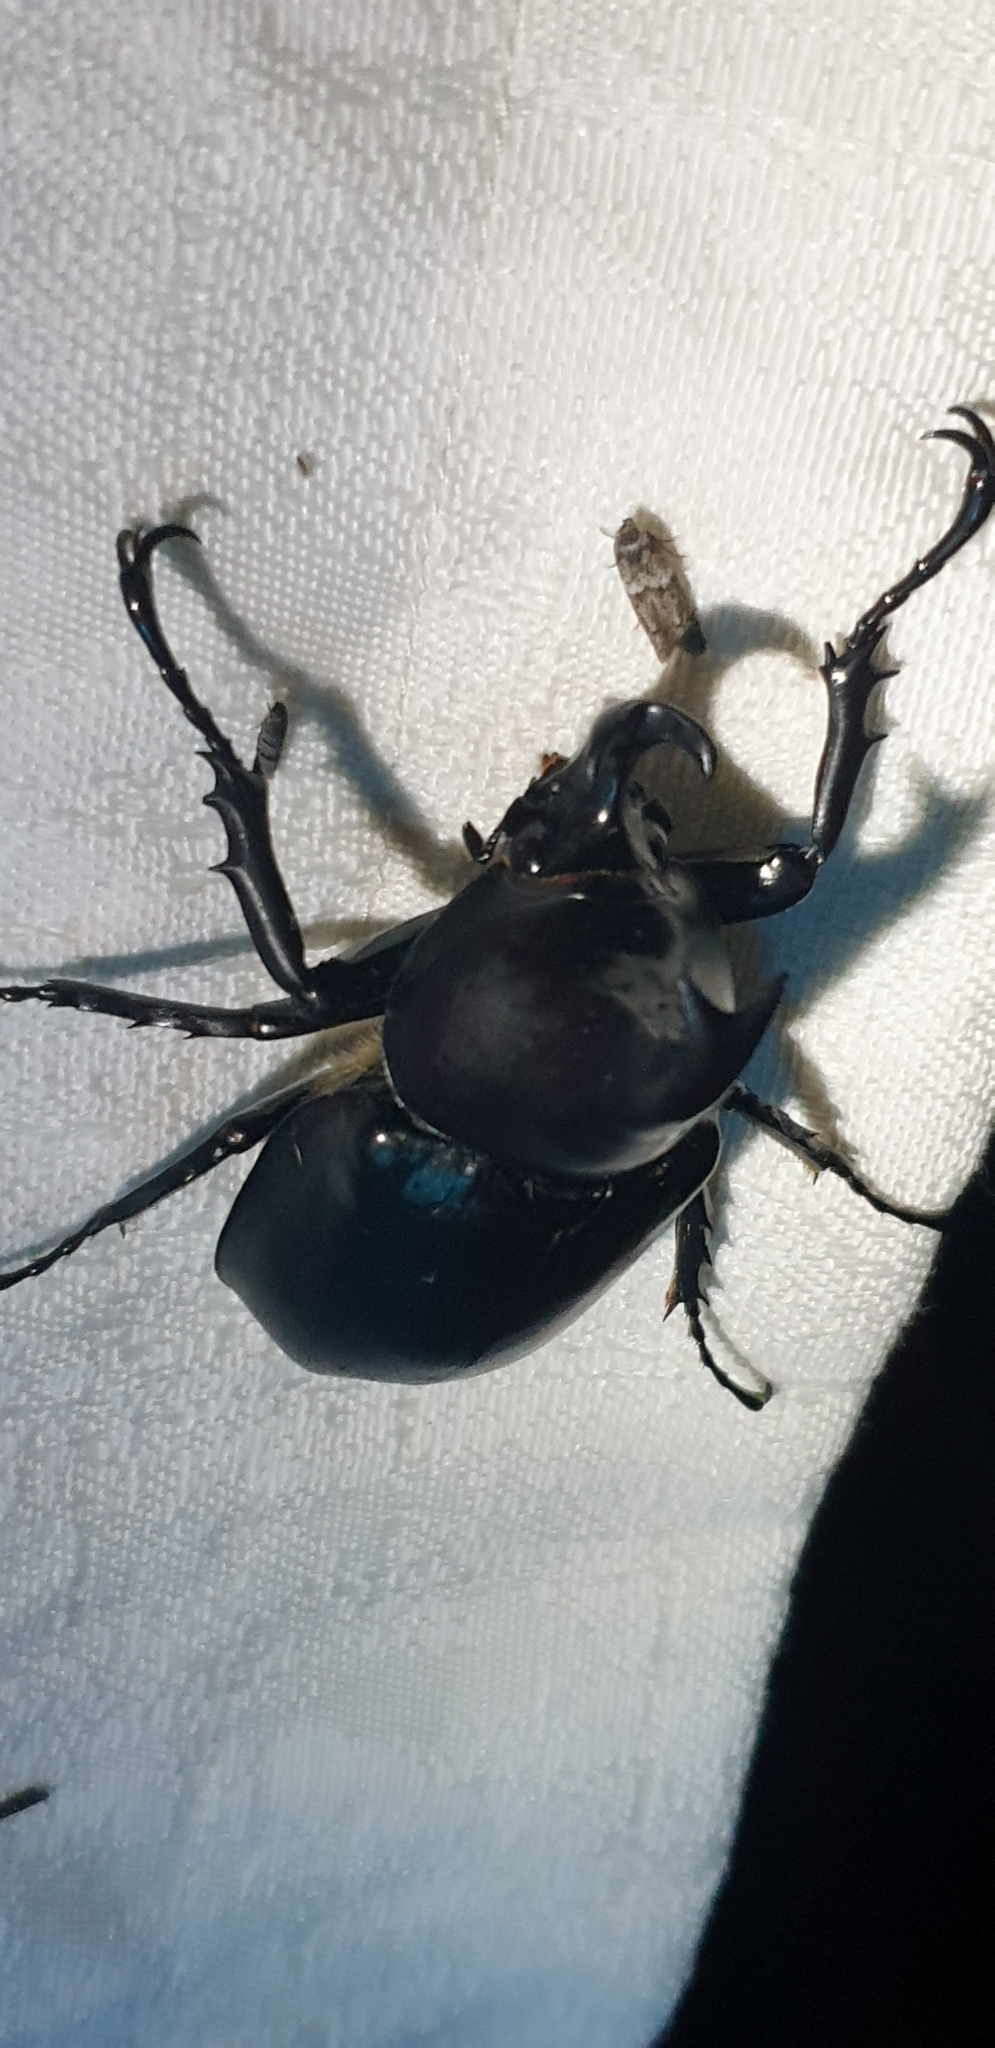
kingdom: Animalia
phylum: Arthropoda
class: Insecta
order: Coleoptera
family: Scarabaeidae
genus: Xylotrupes
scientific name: Xylotrupes australicus
